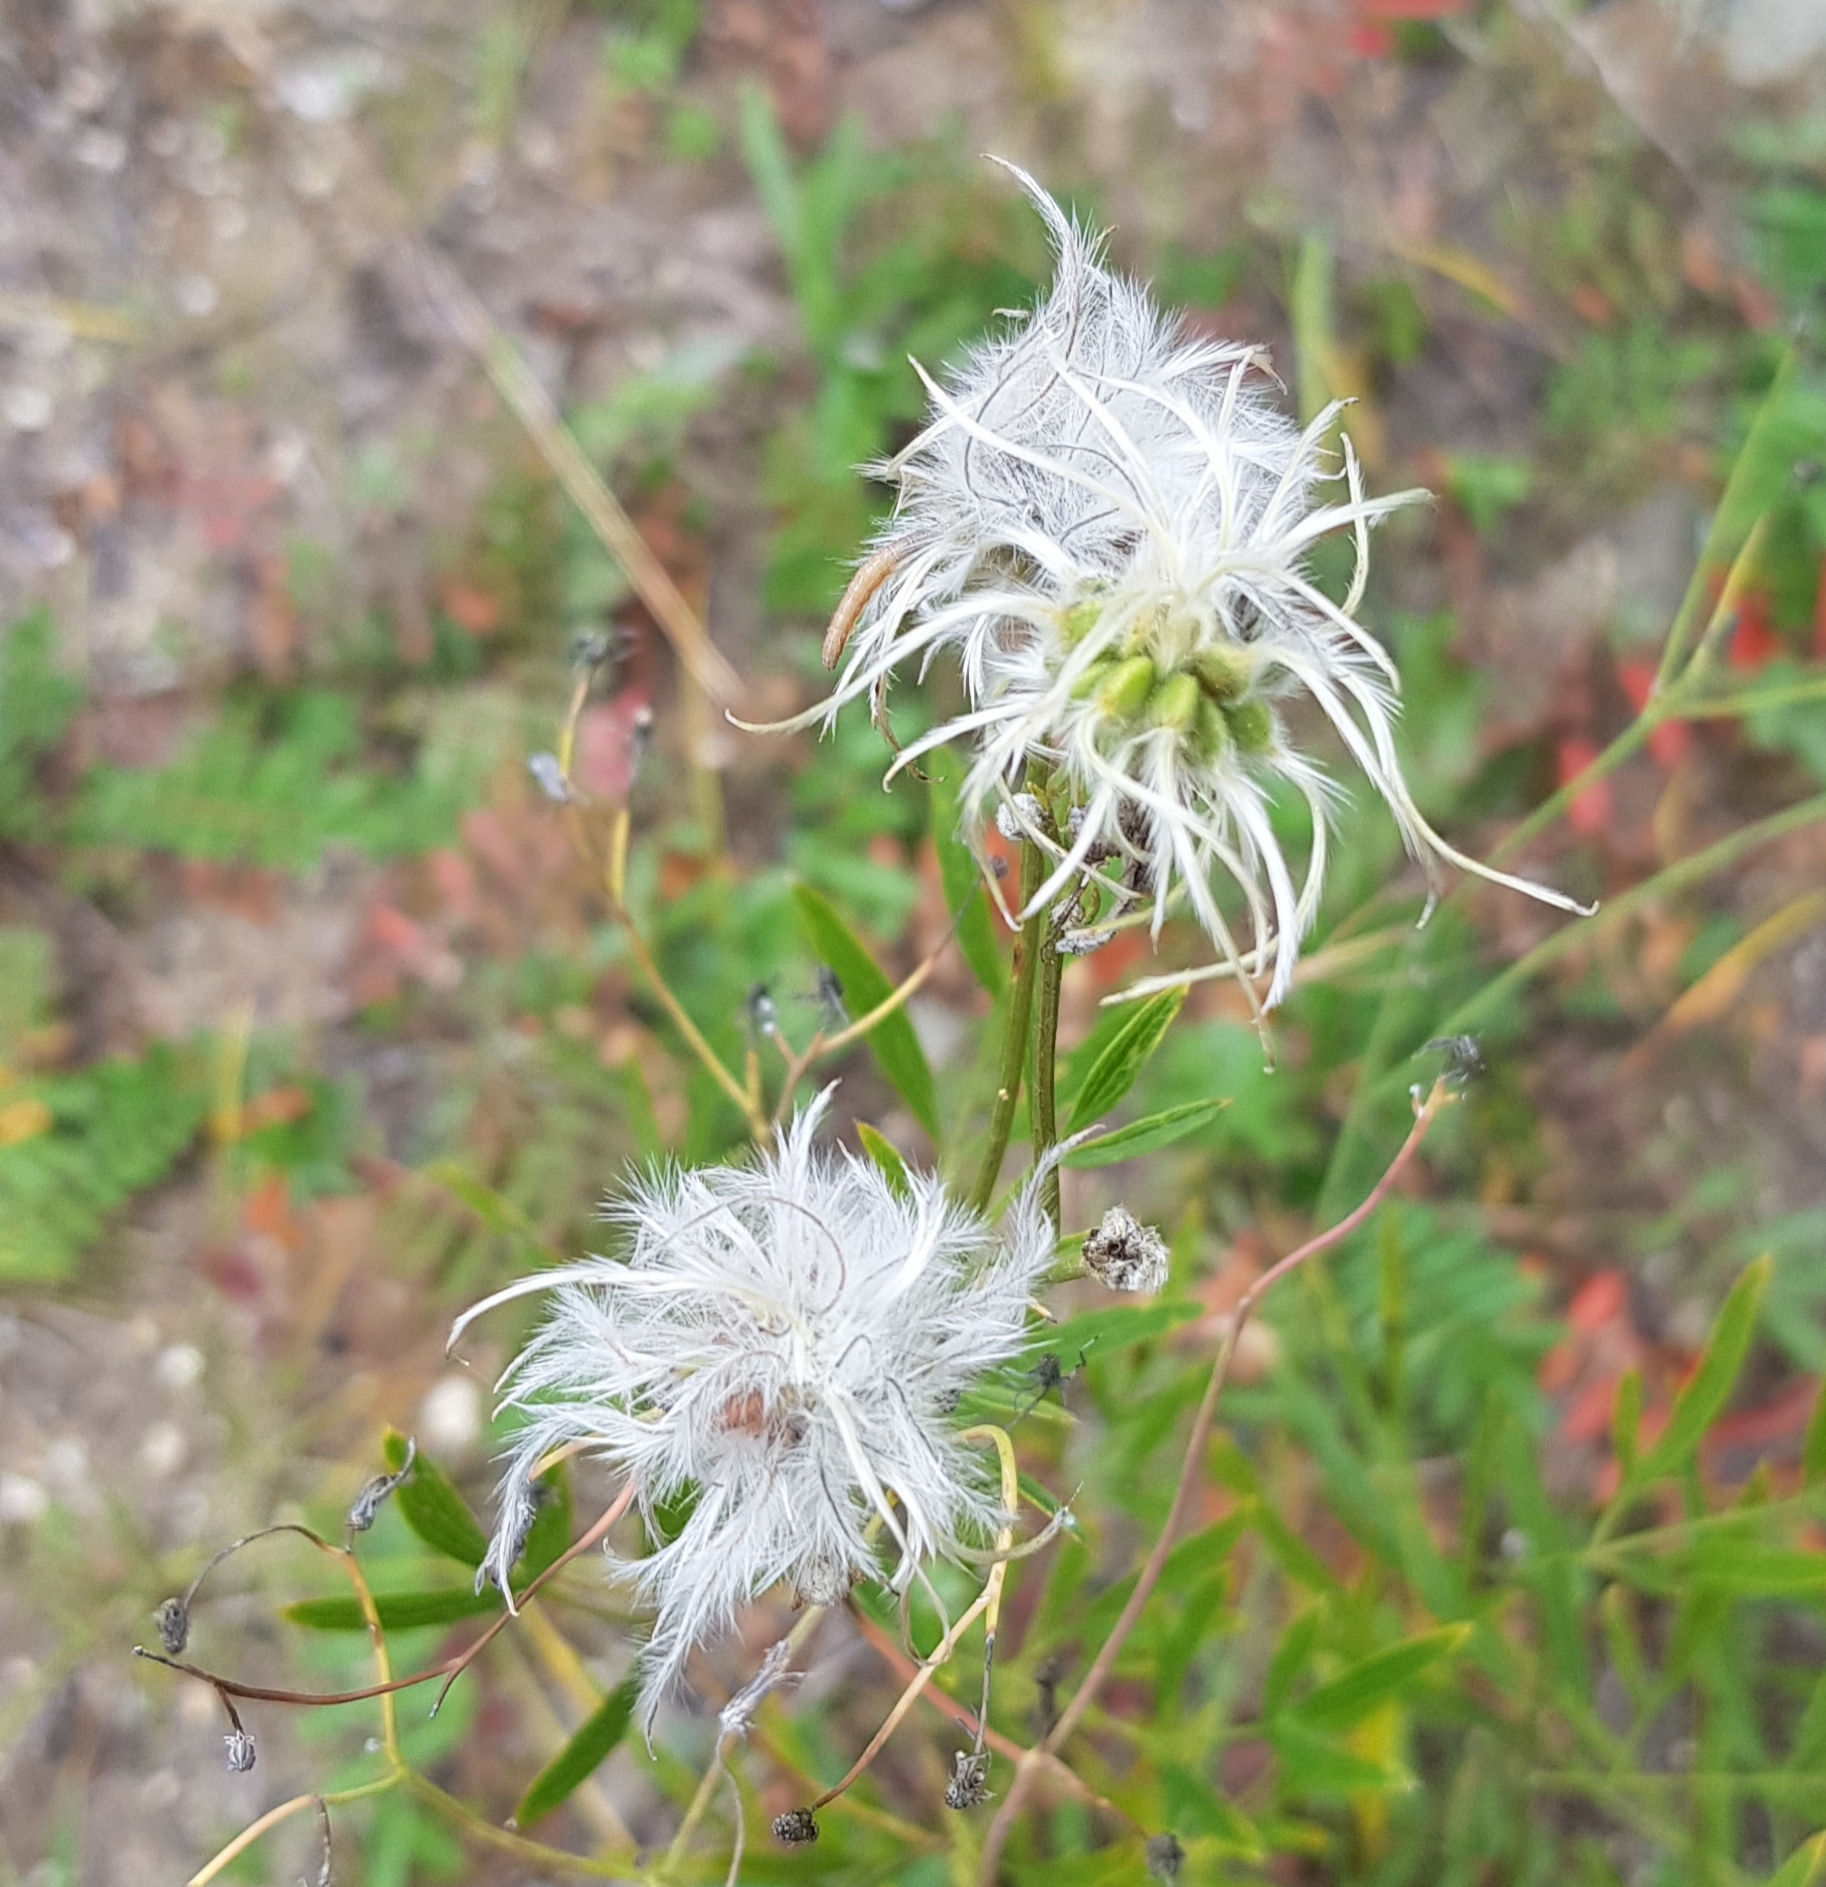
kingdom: Plantae
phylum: Tracheophyta
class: Magnoliopsida
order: Ranunculales
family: Ranunculaceae
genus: Clematis
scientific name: Clematis hexapetala
